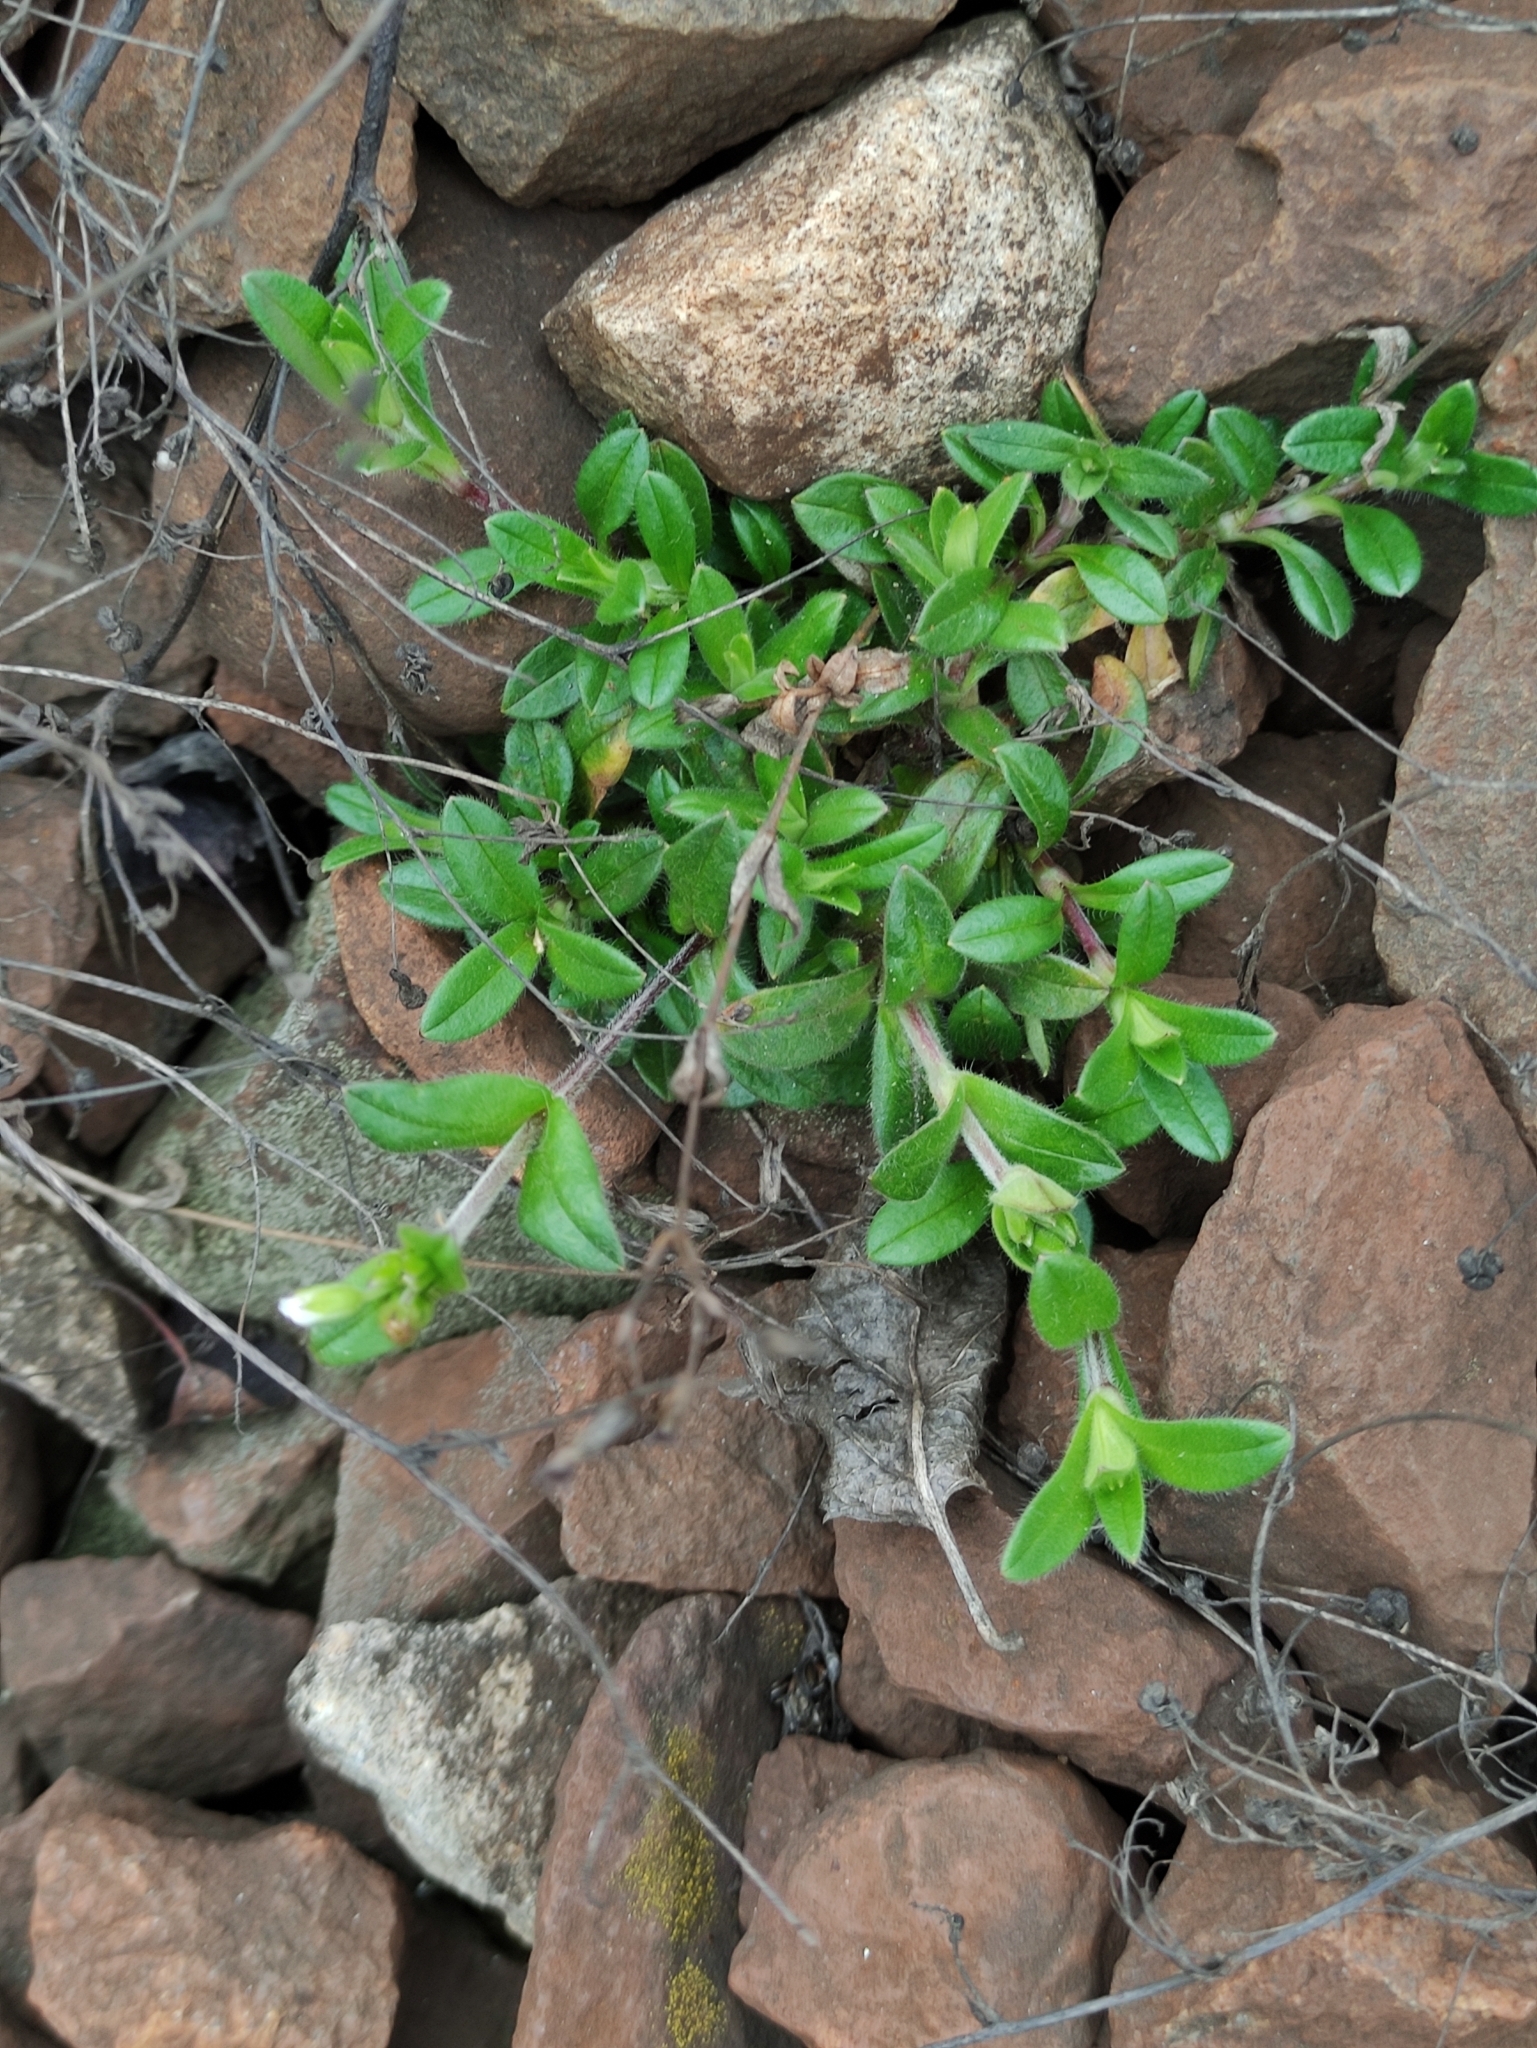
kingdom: Plantae
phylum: Tracheophyta
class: Magnoliopsida
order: Caryophyllales
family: Caryophyllaceae
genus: Cerastium
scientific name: Cerastium holosteoides
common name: Big chickweed
